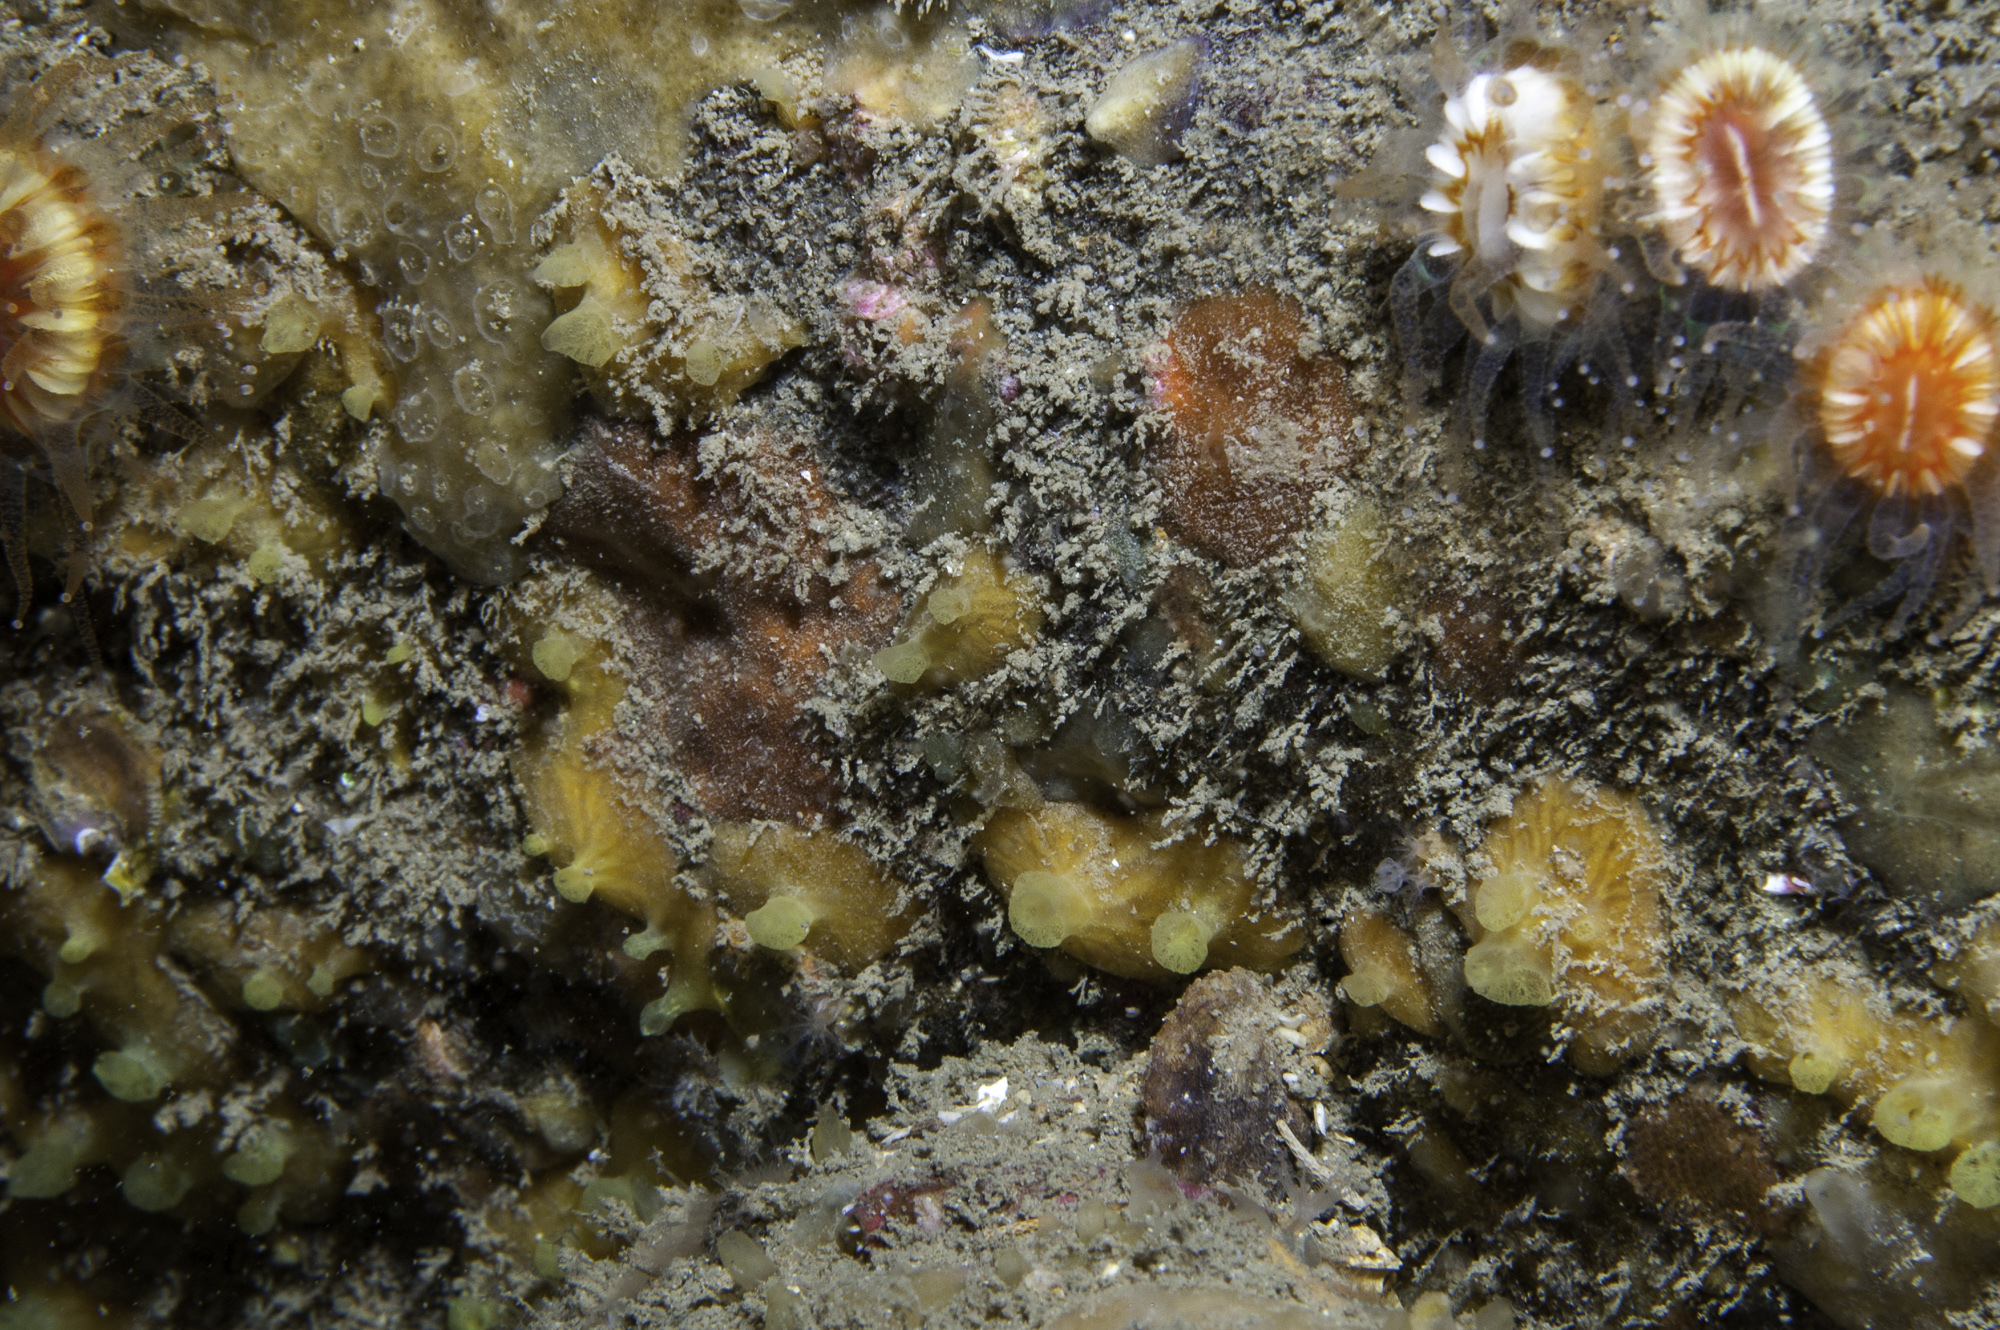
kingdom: Animalia
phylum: Porifera
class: Demospongiae
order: Poecilosclerida
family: Hymedesmiidae
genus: Hymedesmia
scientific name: Hymedesmia rathlinia
